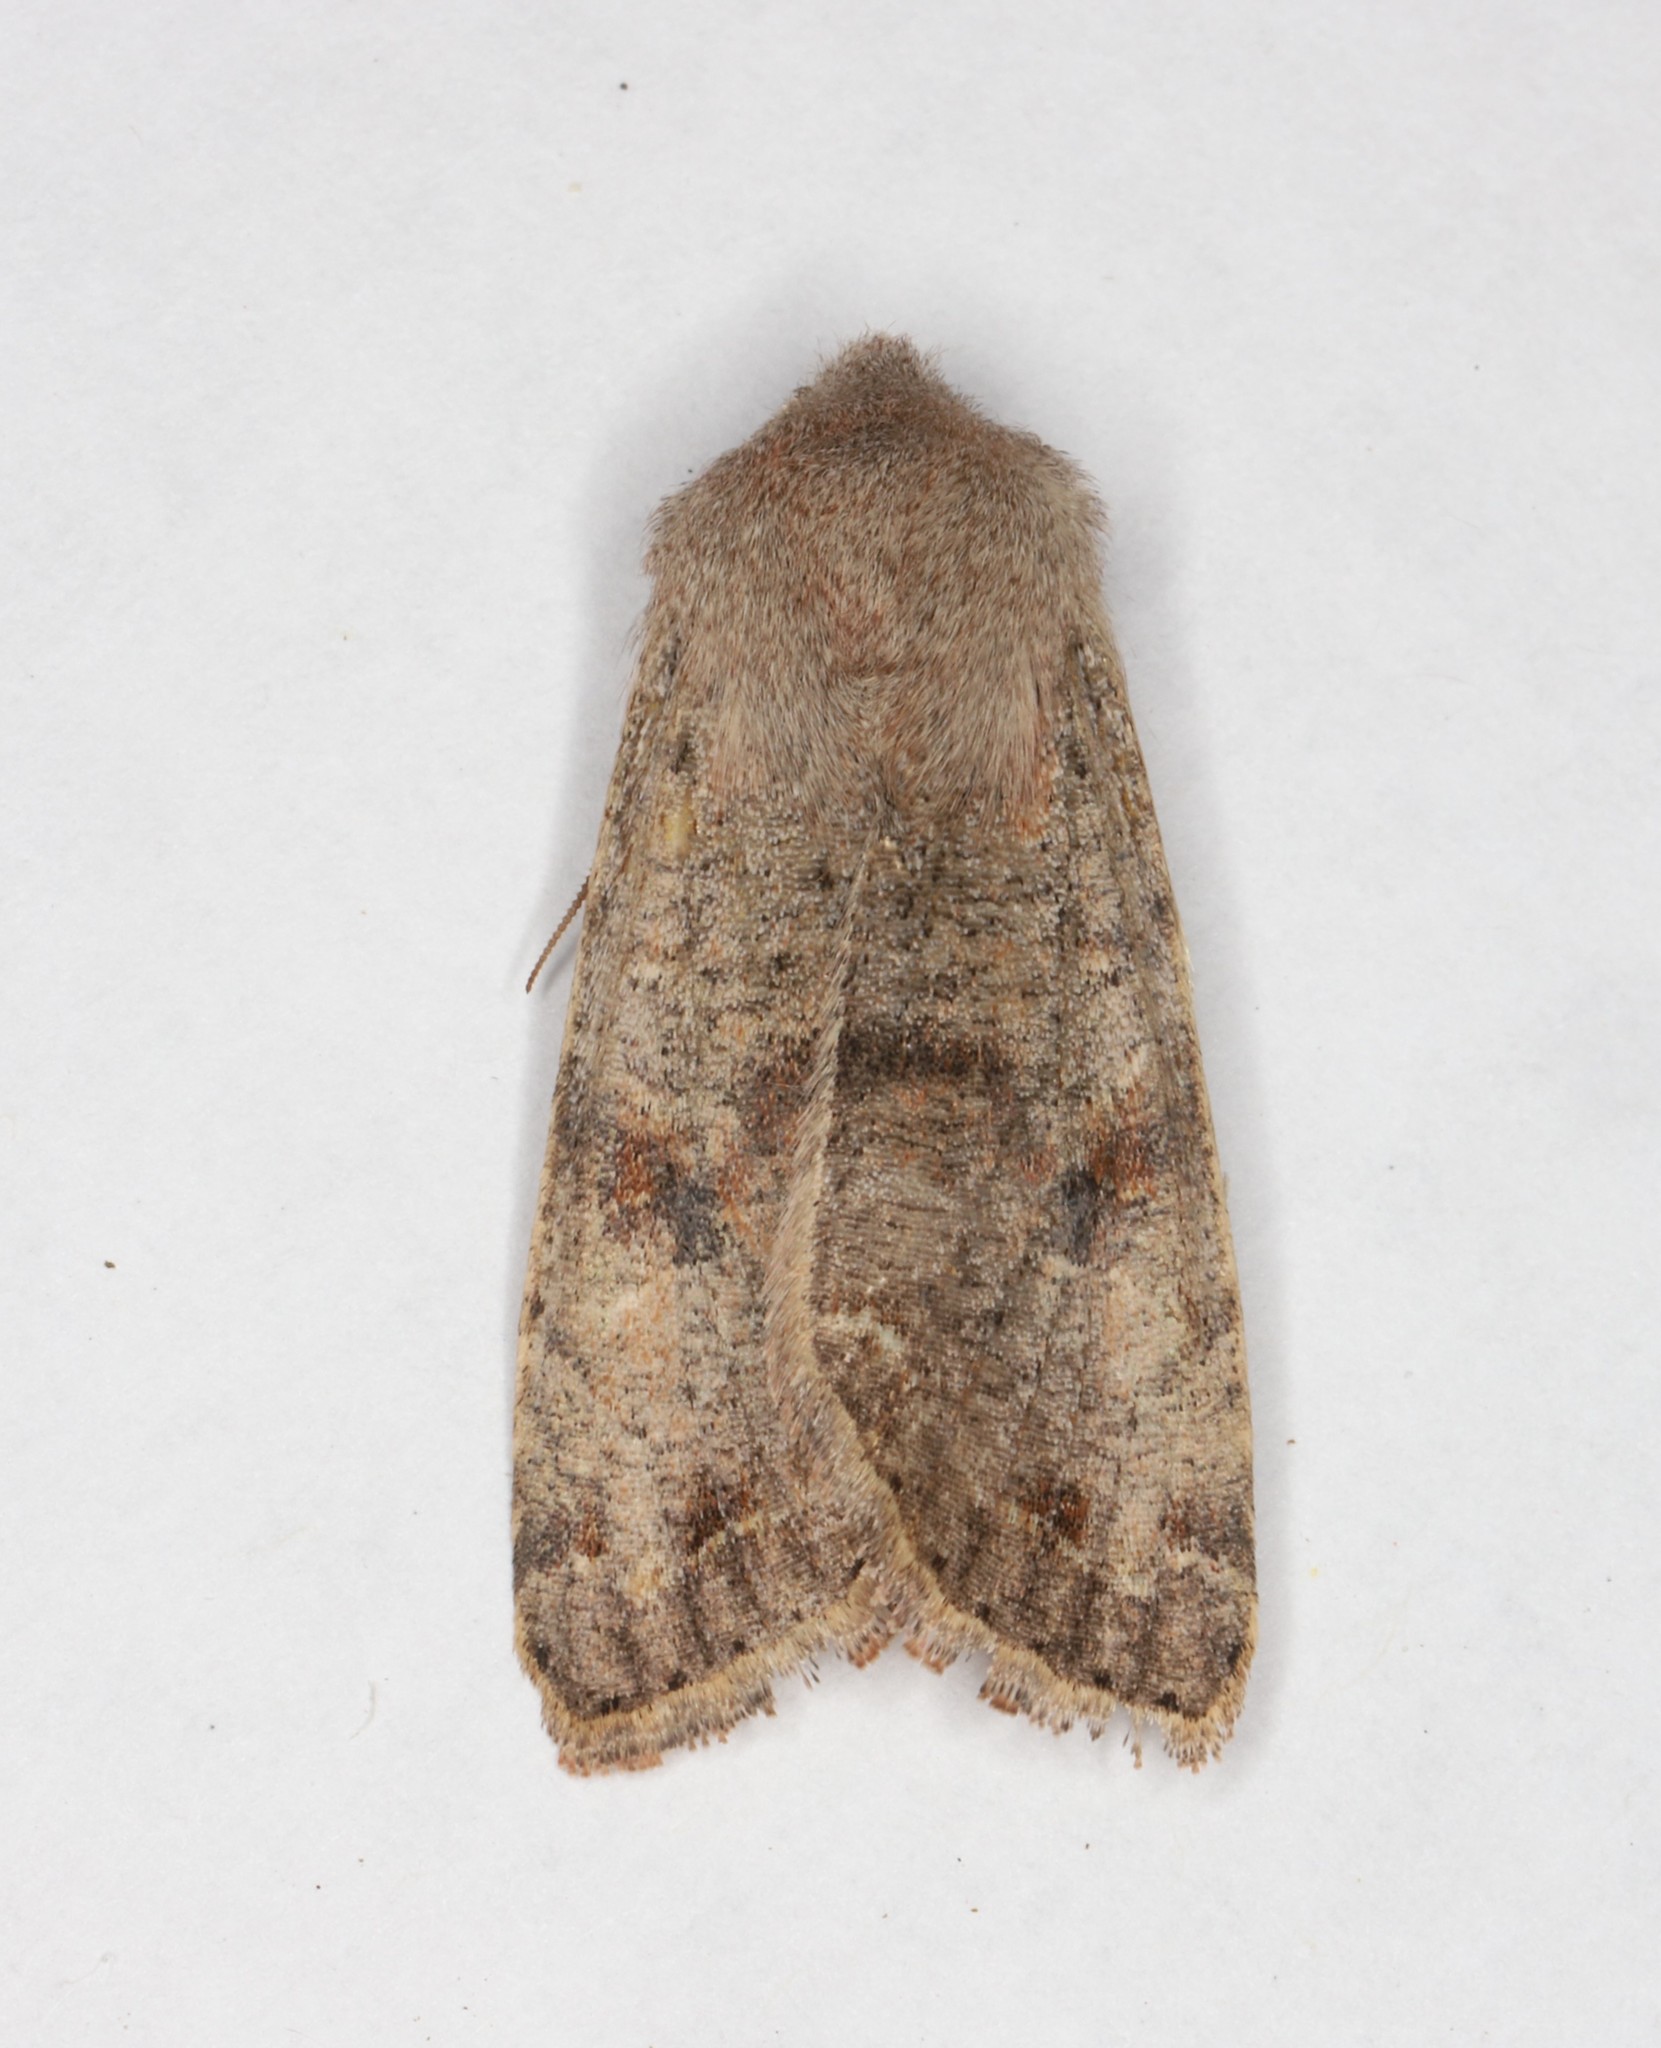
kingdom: Animalia
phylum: Arthropoda
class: Insecta
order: Lepidoptera
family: Noctuidae
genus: Orthosia
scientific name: Orthosia hibisci
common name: Green fruitworm
